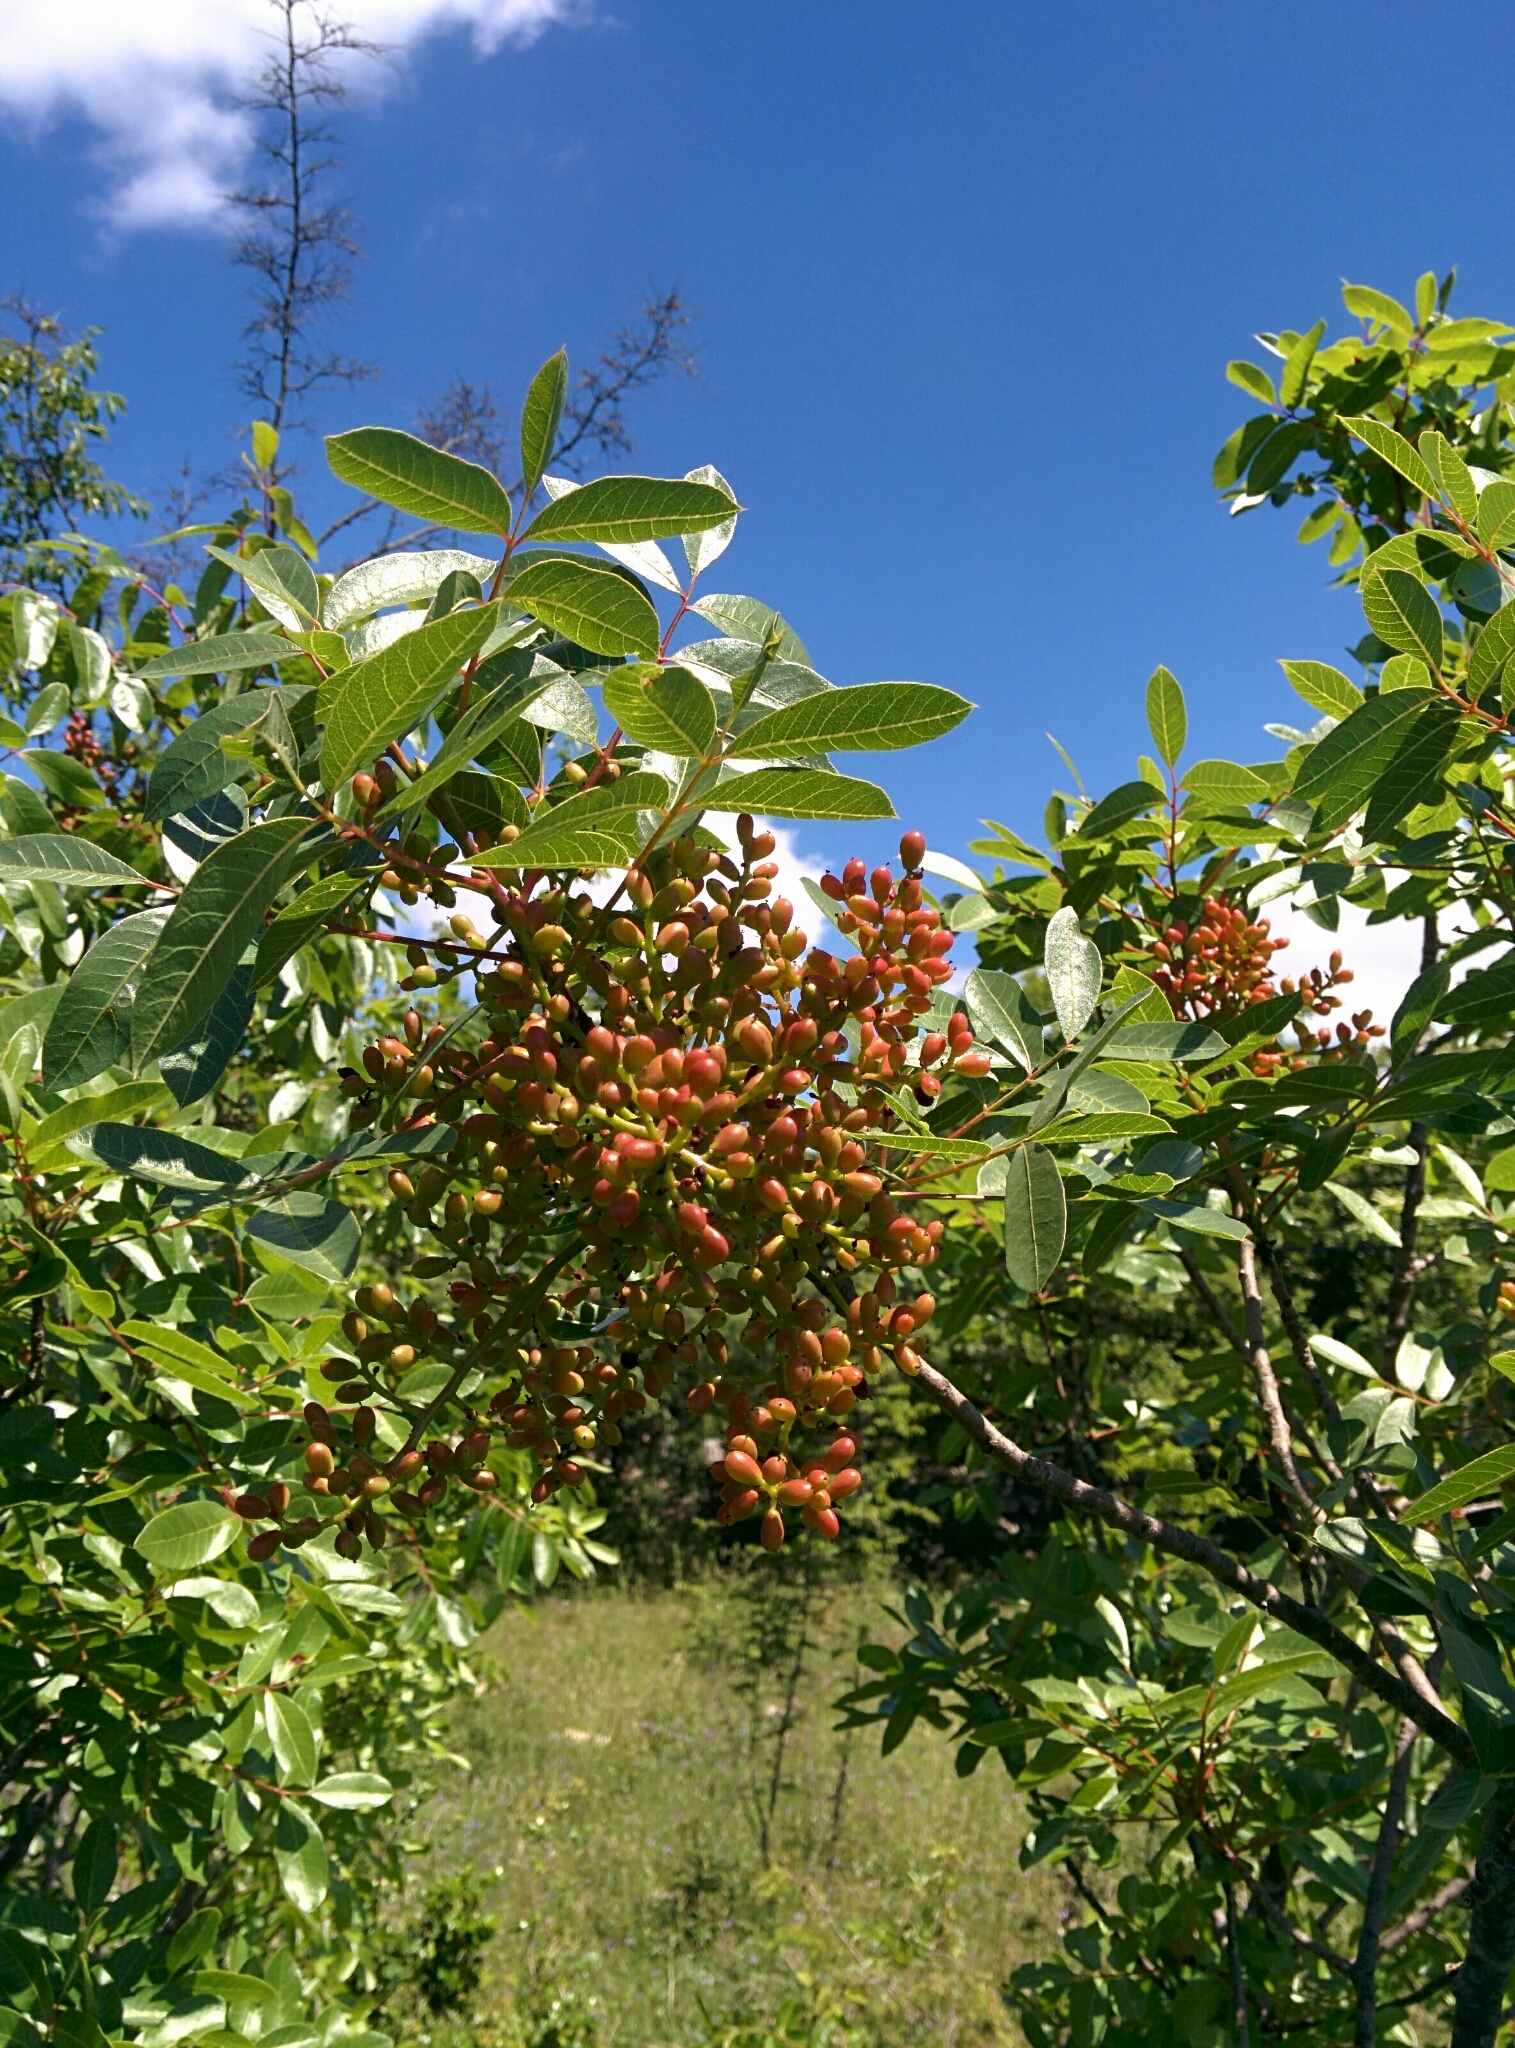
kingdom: Plantae
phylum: Tracheophyta
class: Magnoliopsida
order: Sapindales
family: Anacardiaceae
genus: Pistacia
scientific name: Pistacia lentiscus
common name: Lentisk
